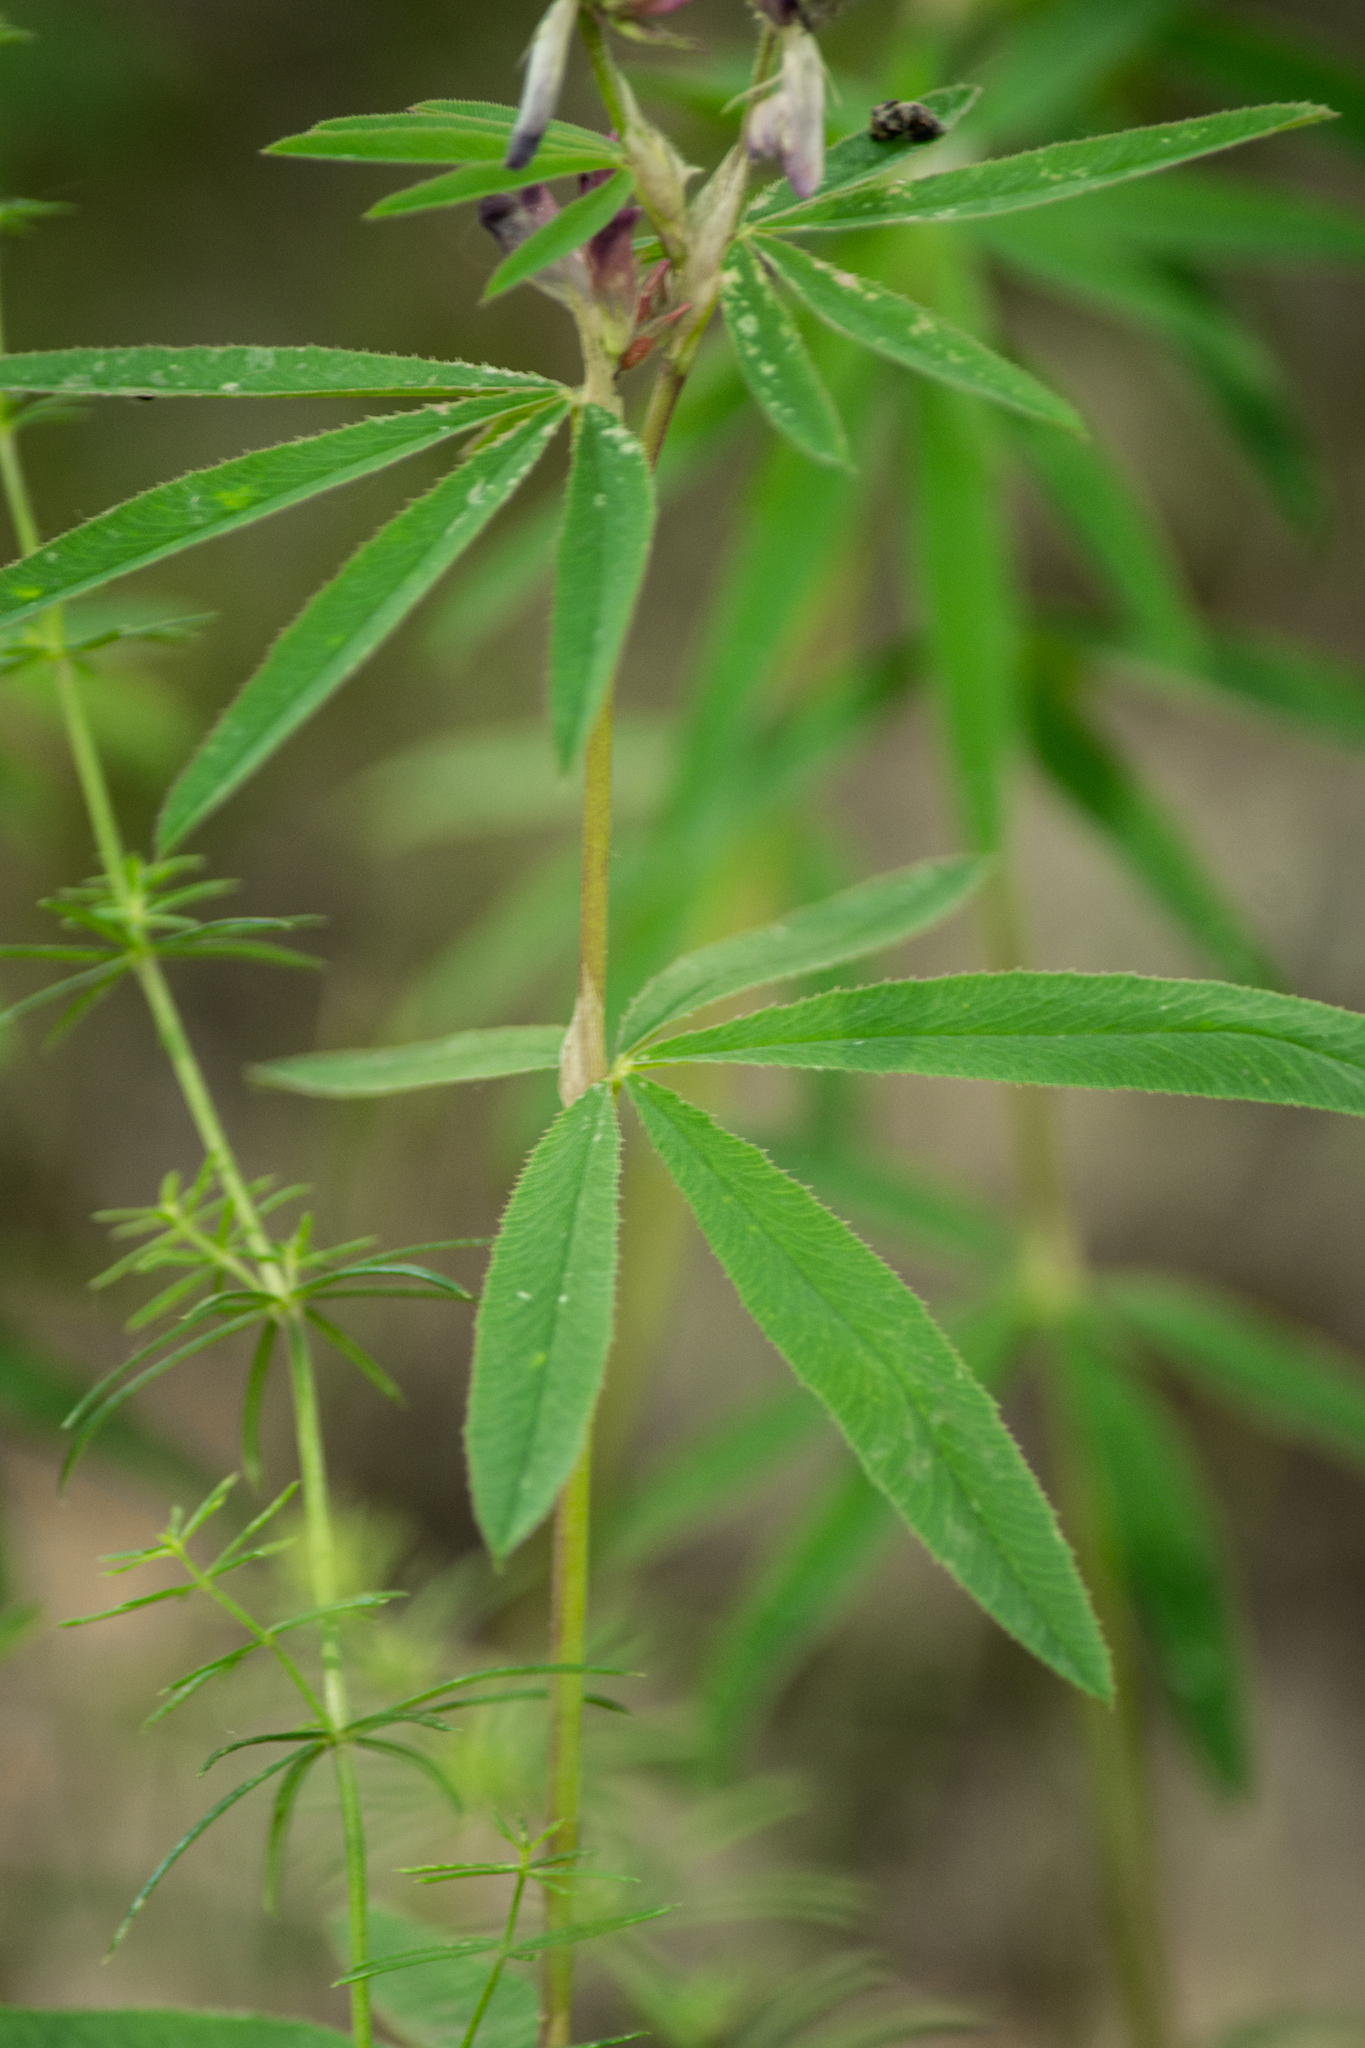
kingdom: Plantae
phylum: Tracheophyta
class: Magnoliopsida
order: Fabales
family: Fabaceae
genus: Trifolium
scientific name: Trifolium lupinaster
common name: Lupine clover
